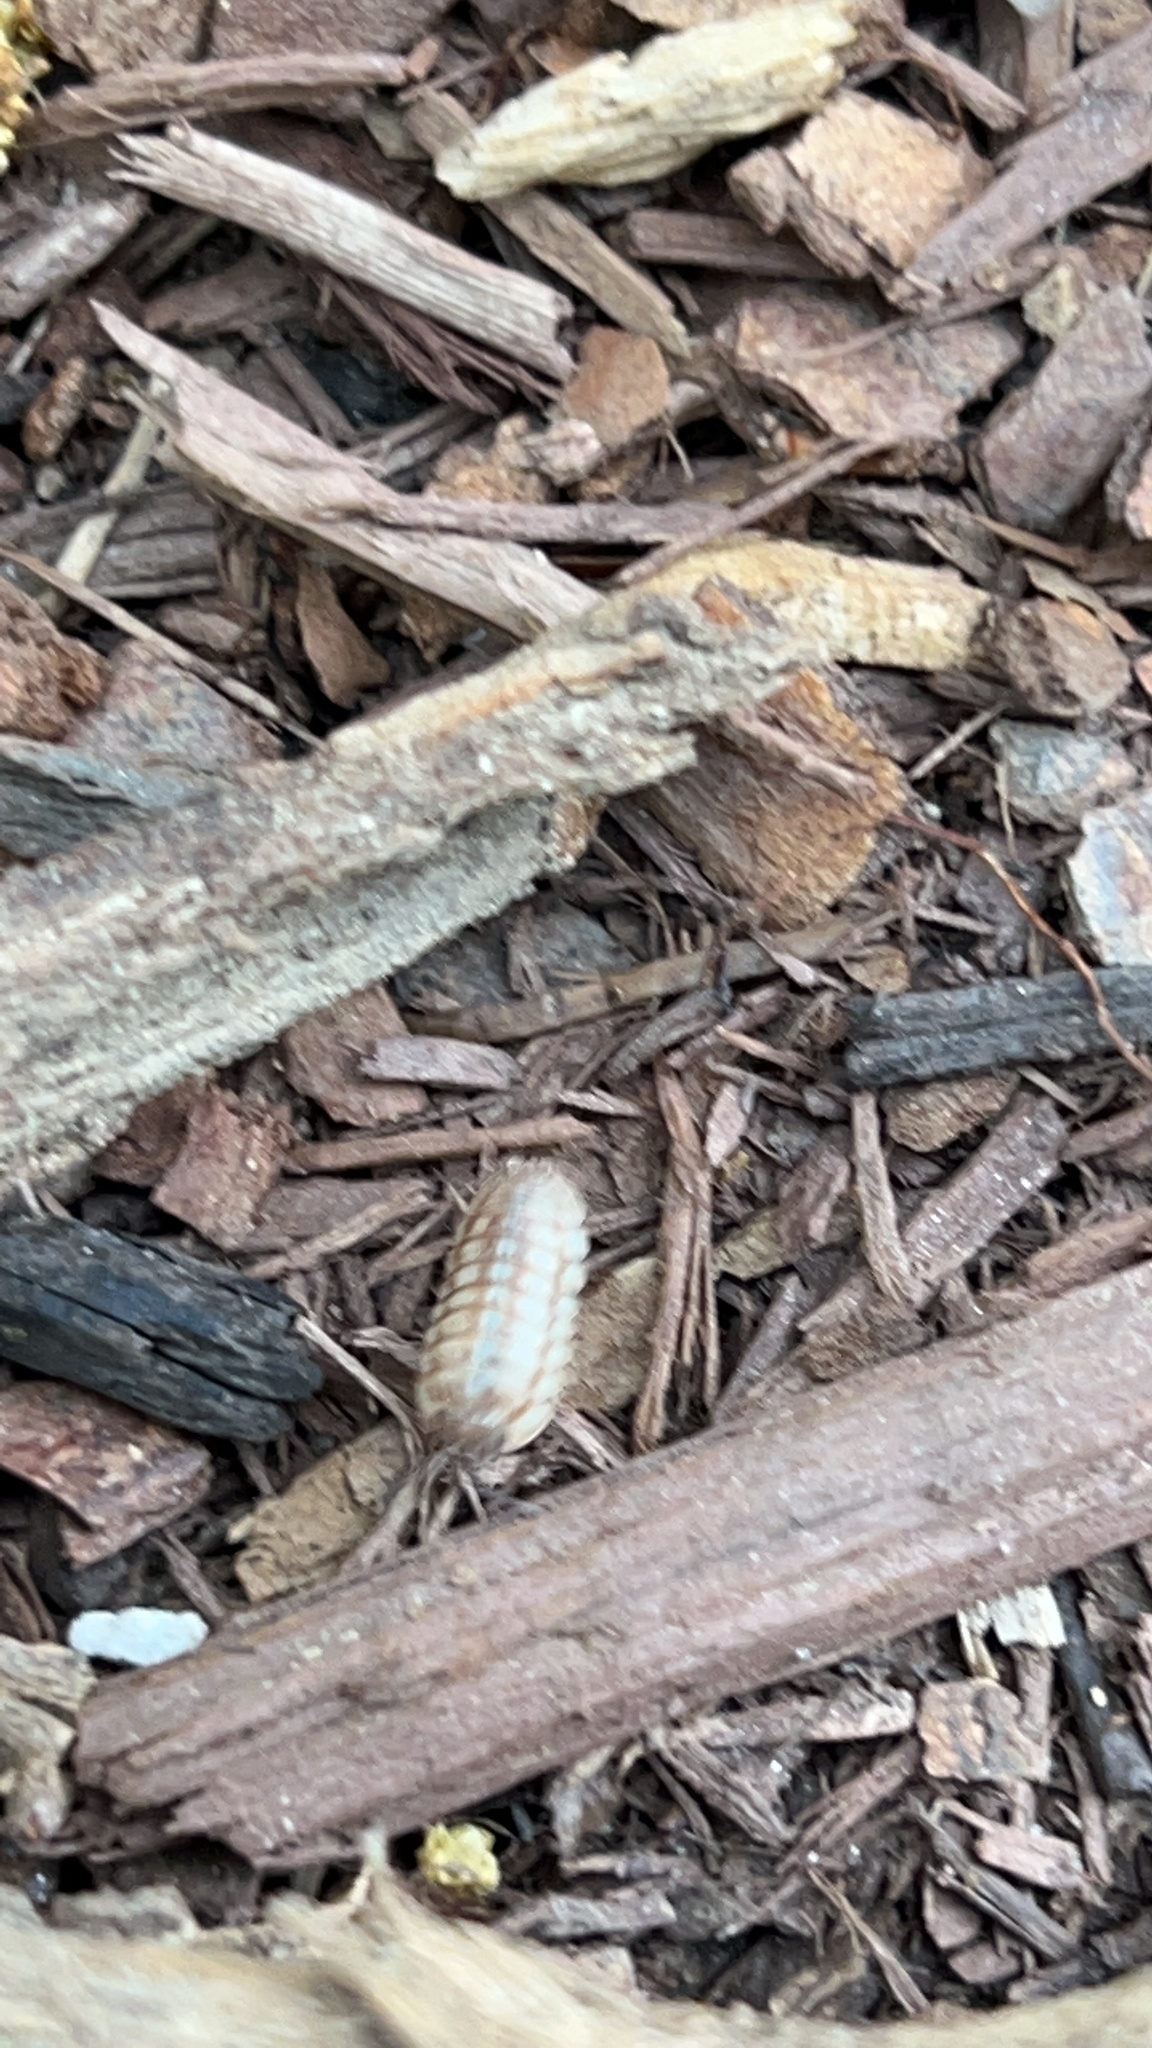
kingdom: Animalia
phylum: Arthropoda
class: Malacostraca
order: Isopoda
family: Armadillidiidae
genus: Armadillidium
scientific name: Armadillidium nasatum
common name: Isopod
